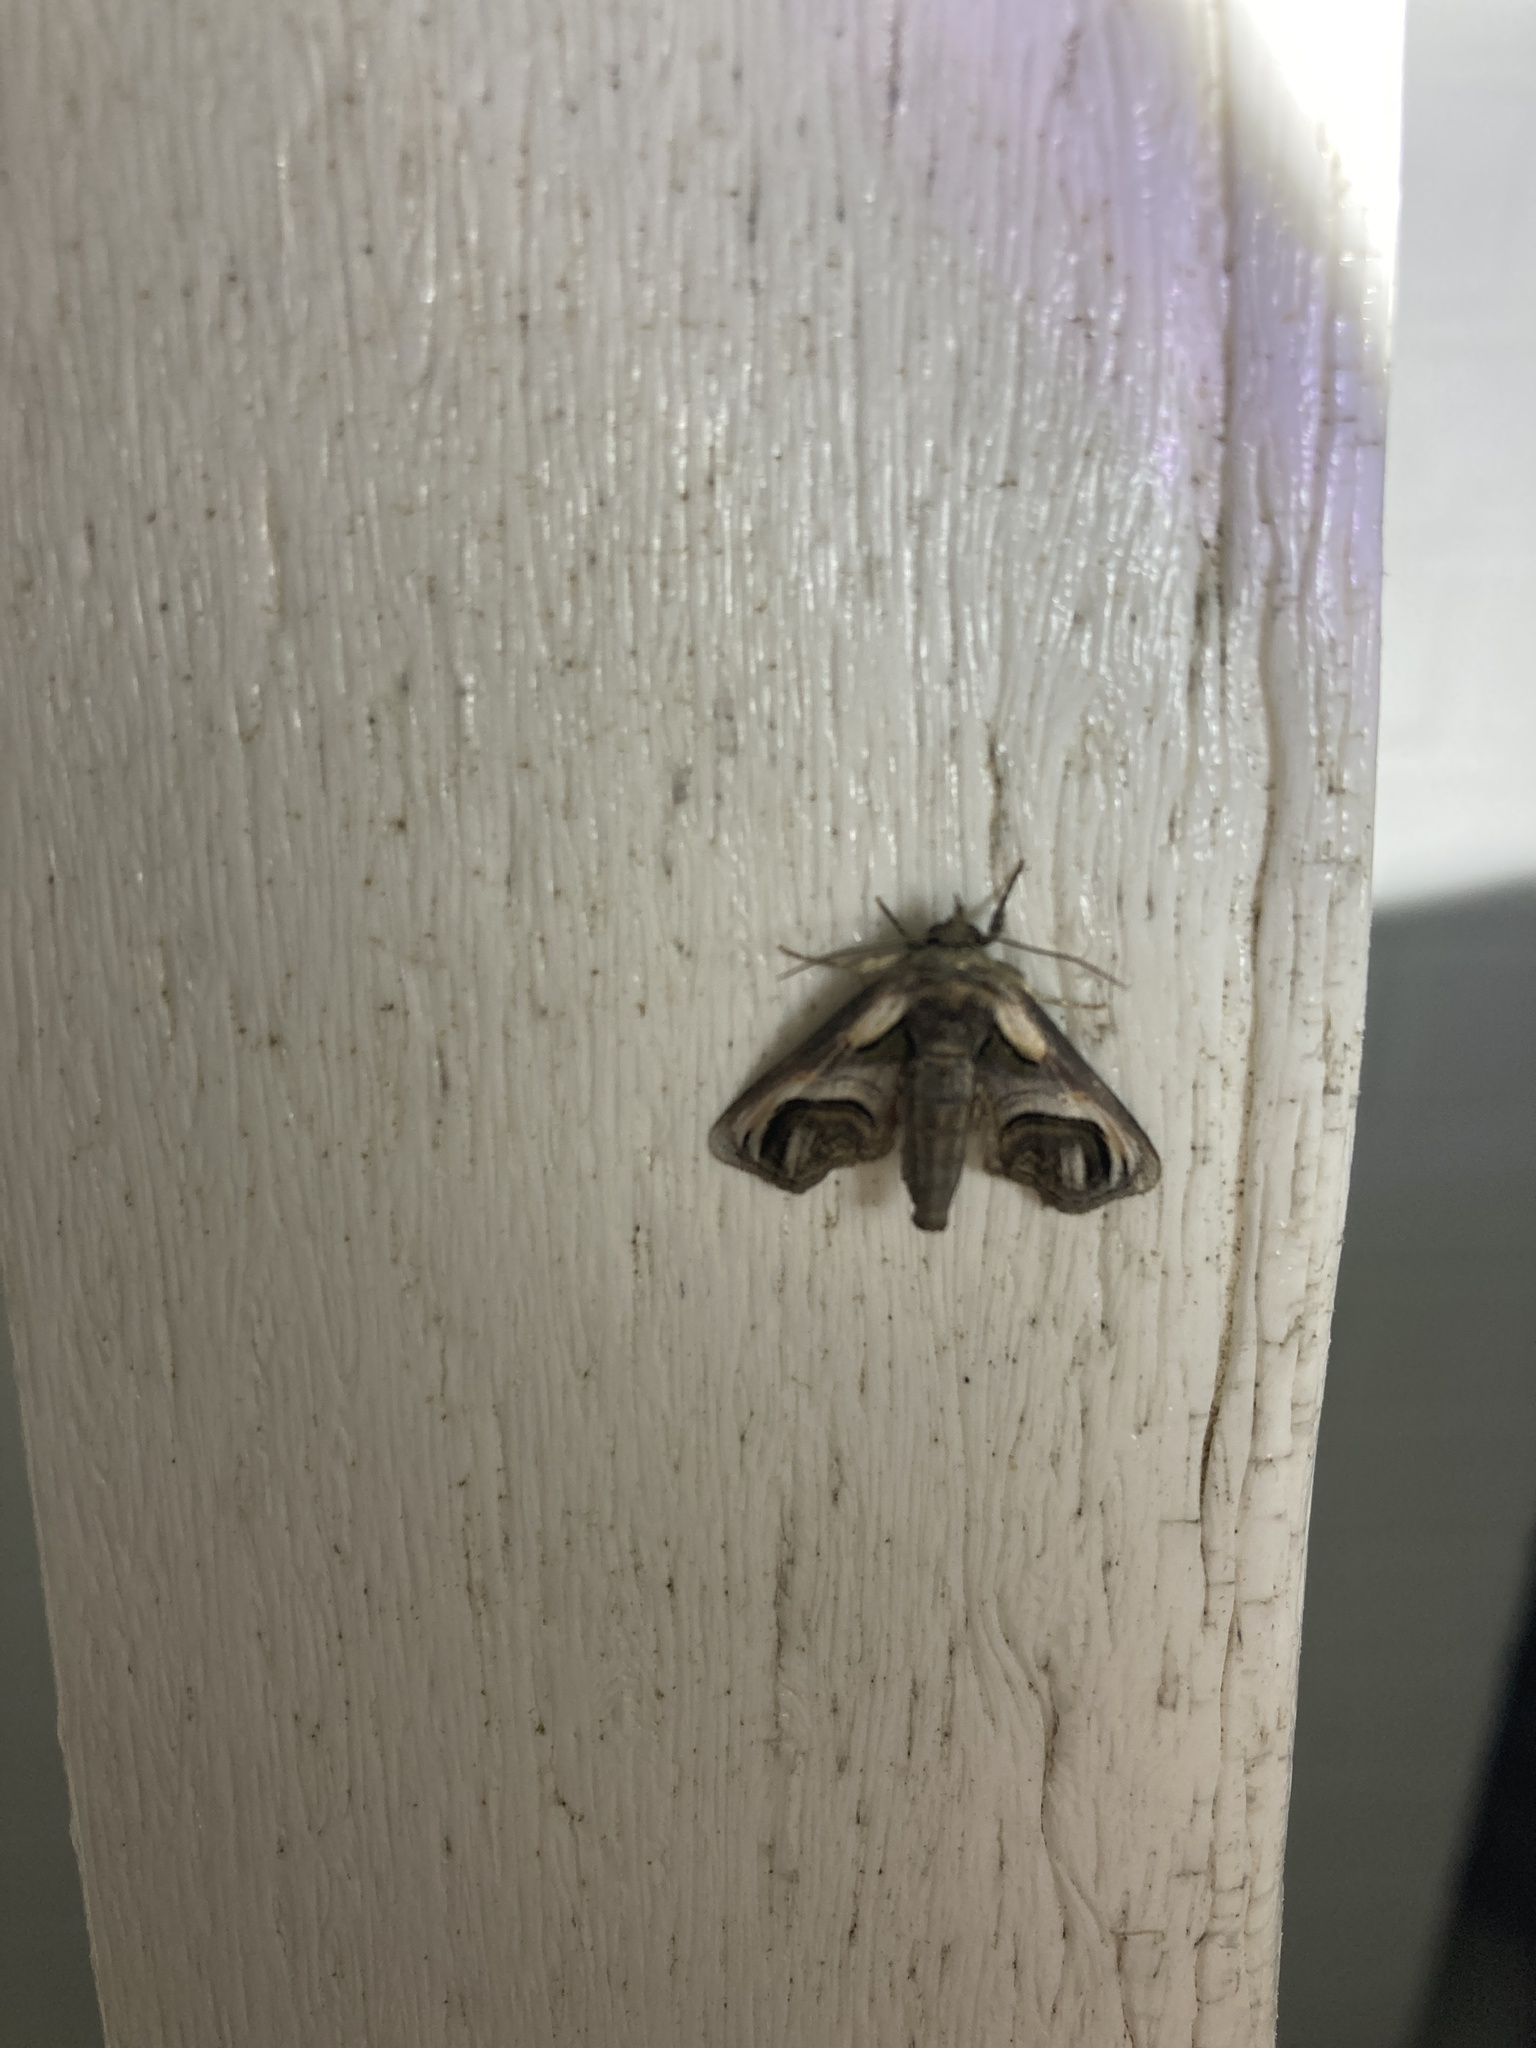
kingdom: Animalia
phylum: Arthropoda
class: Insecta
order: Lepidoptera
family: Euteliidae
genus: Paectes
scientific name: Paectes oculatrix
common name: Eyed paectes moth
